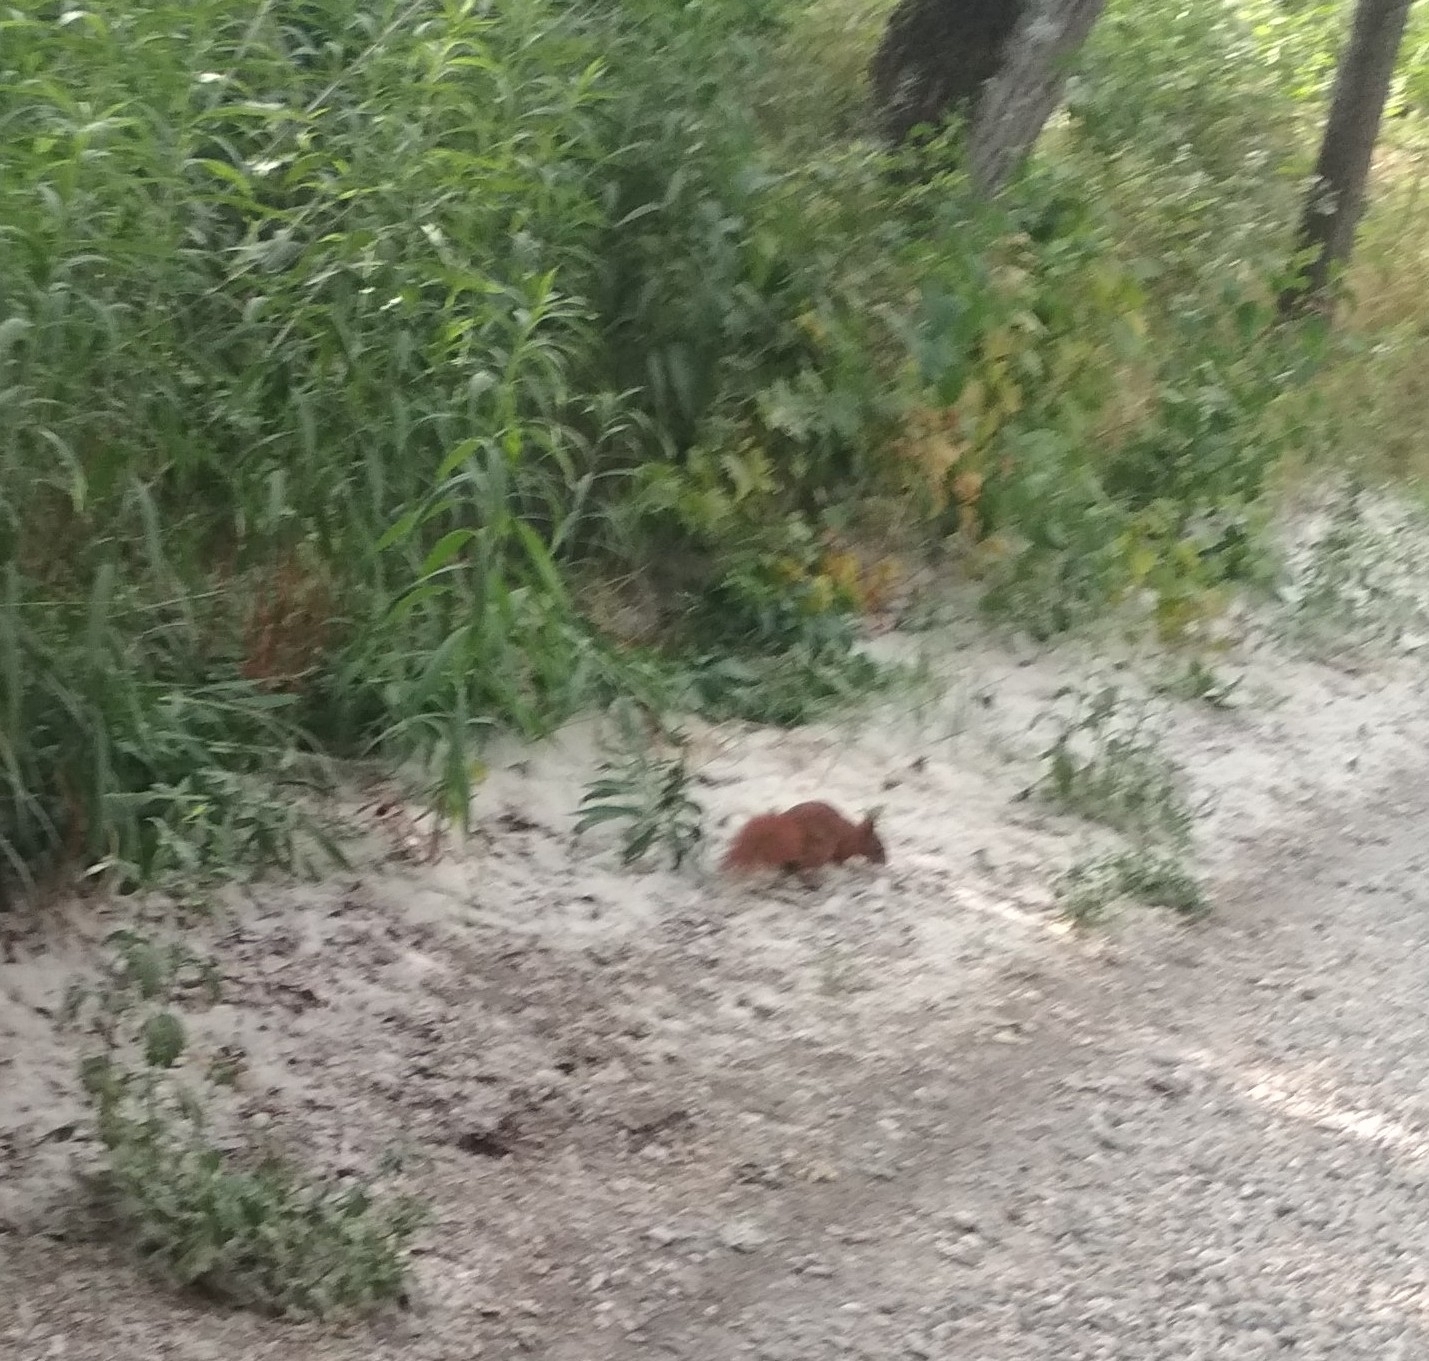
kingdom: Animalia
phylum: Chordata
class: Mammalia
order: Rodentia
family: Sciuridae
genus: Sciurus
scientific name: Sciurus vulgaris
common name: Eurasian red squirrel
